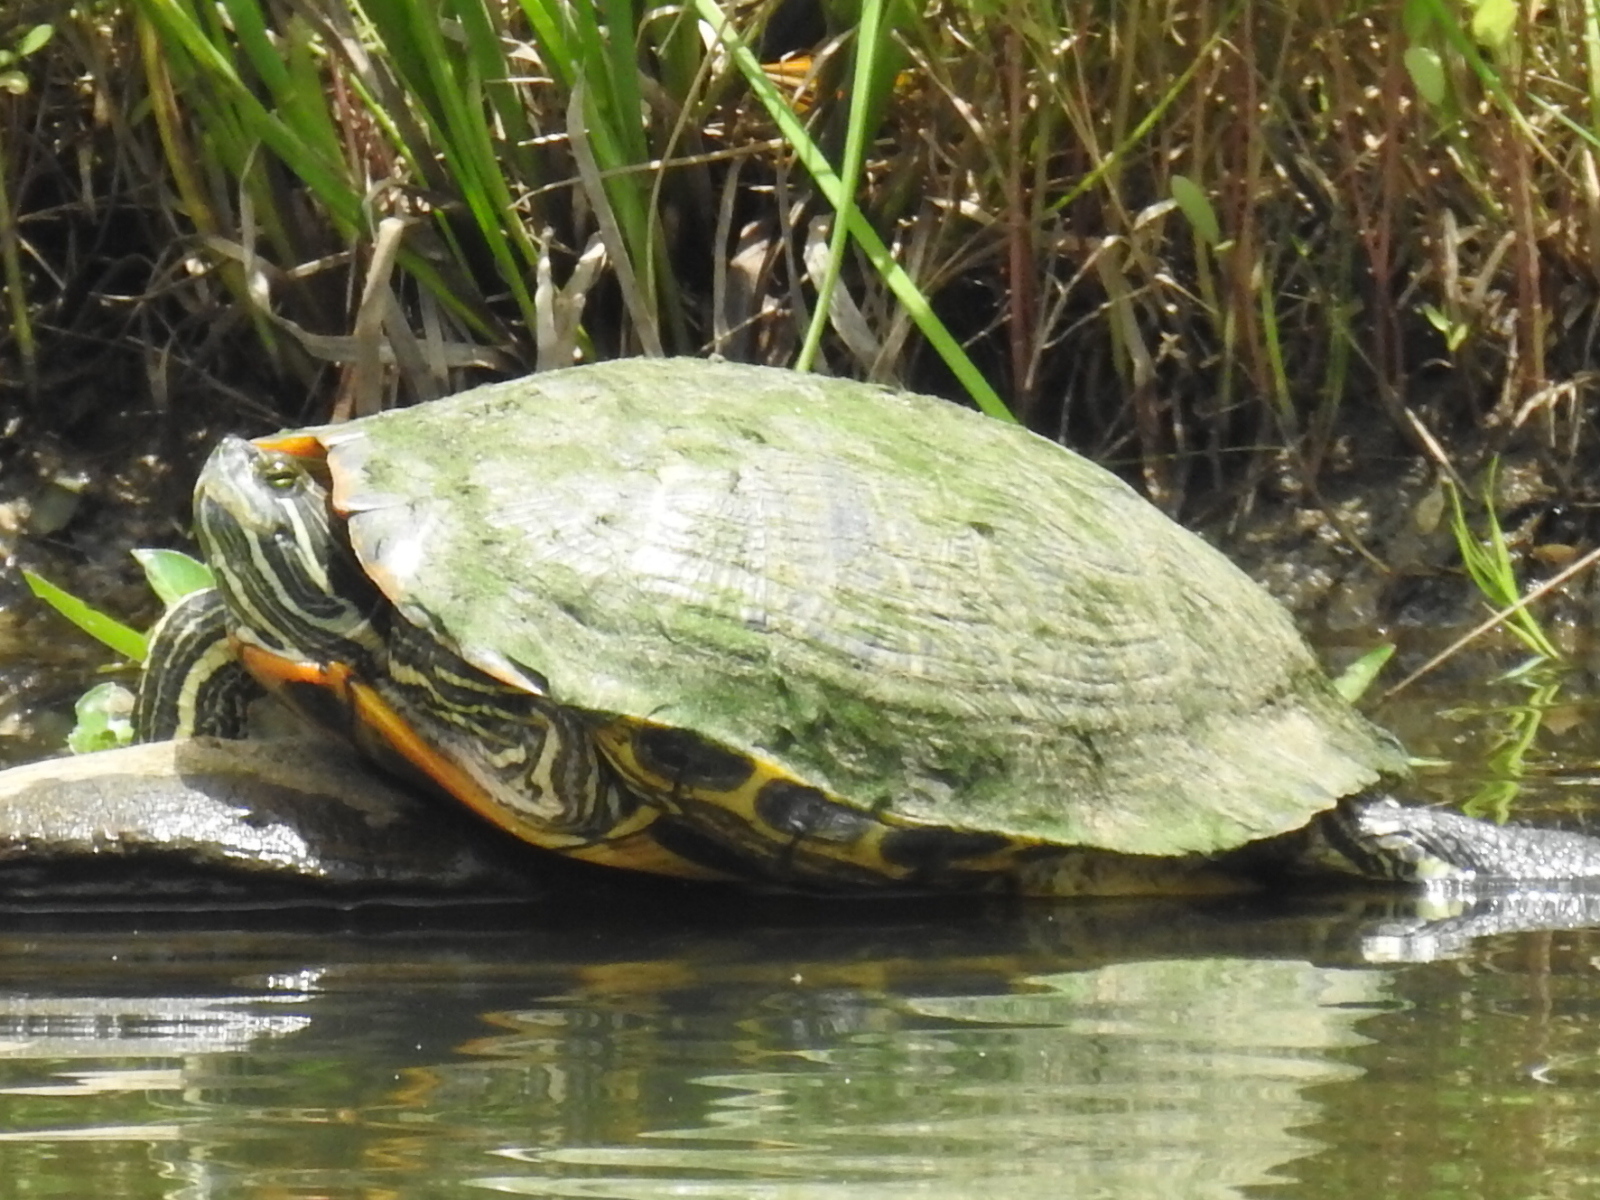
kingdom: Animalia
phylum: Chordata
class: Testudines
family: Emydidae
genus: Trachemys
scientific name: Trachemys scripta
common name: Slider
